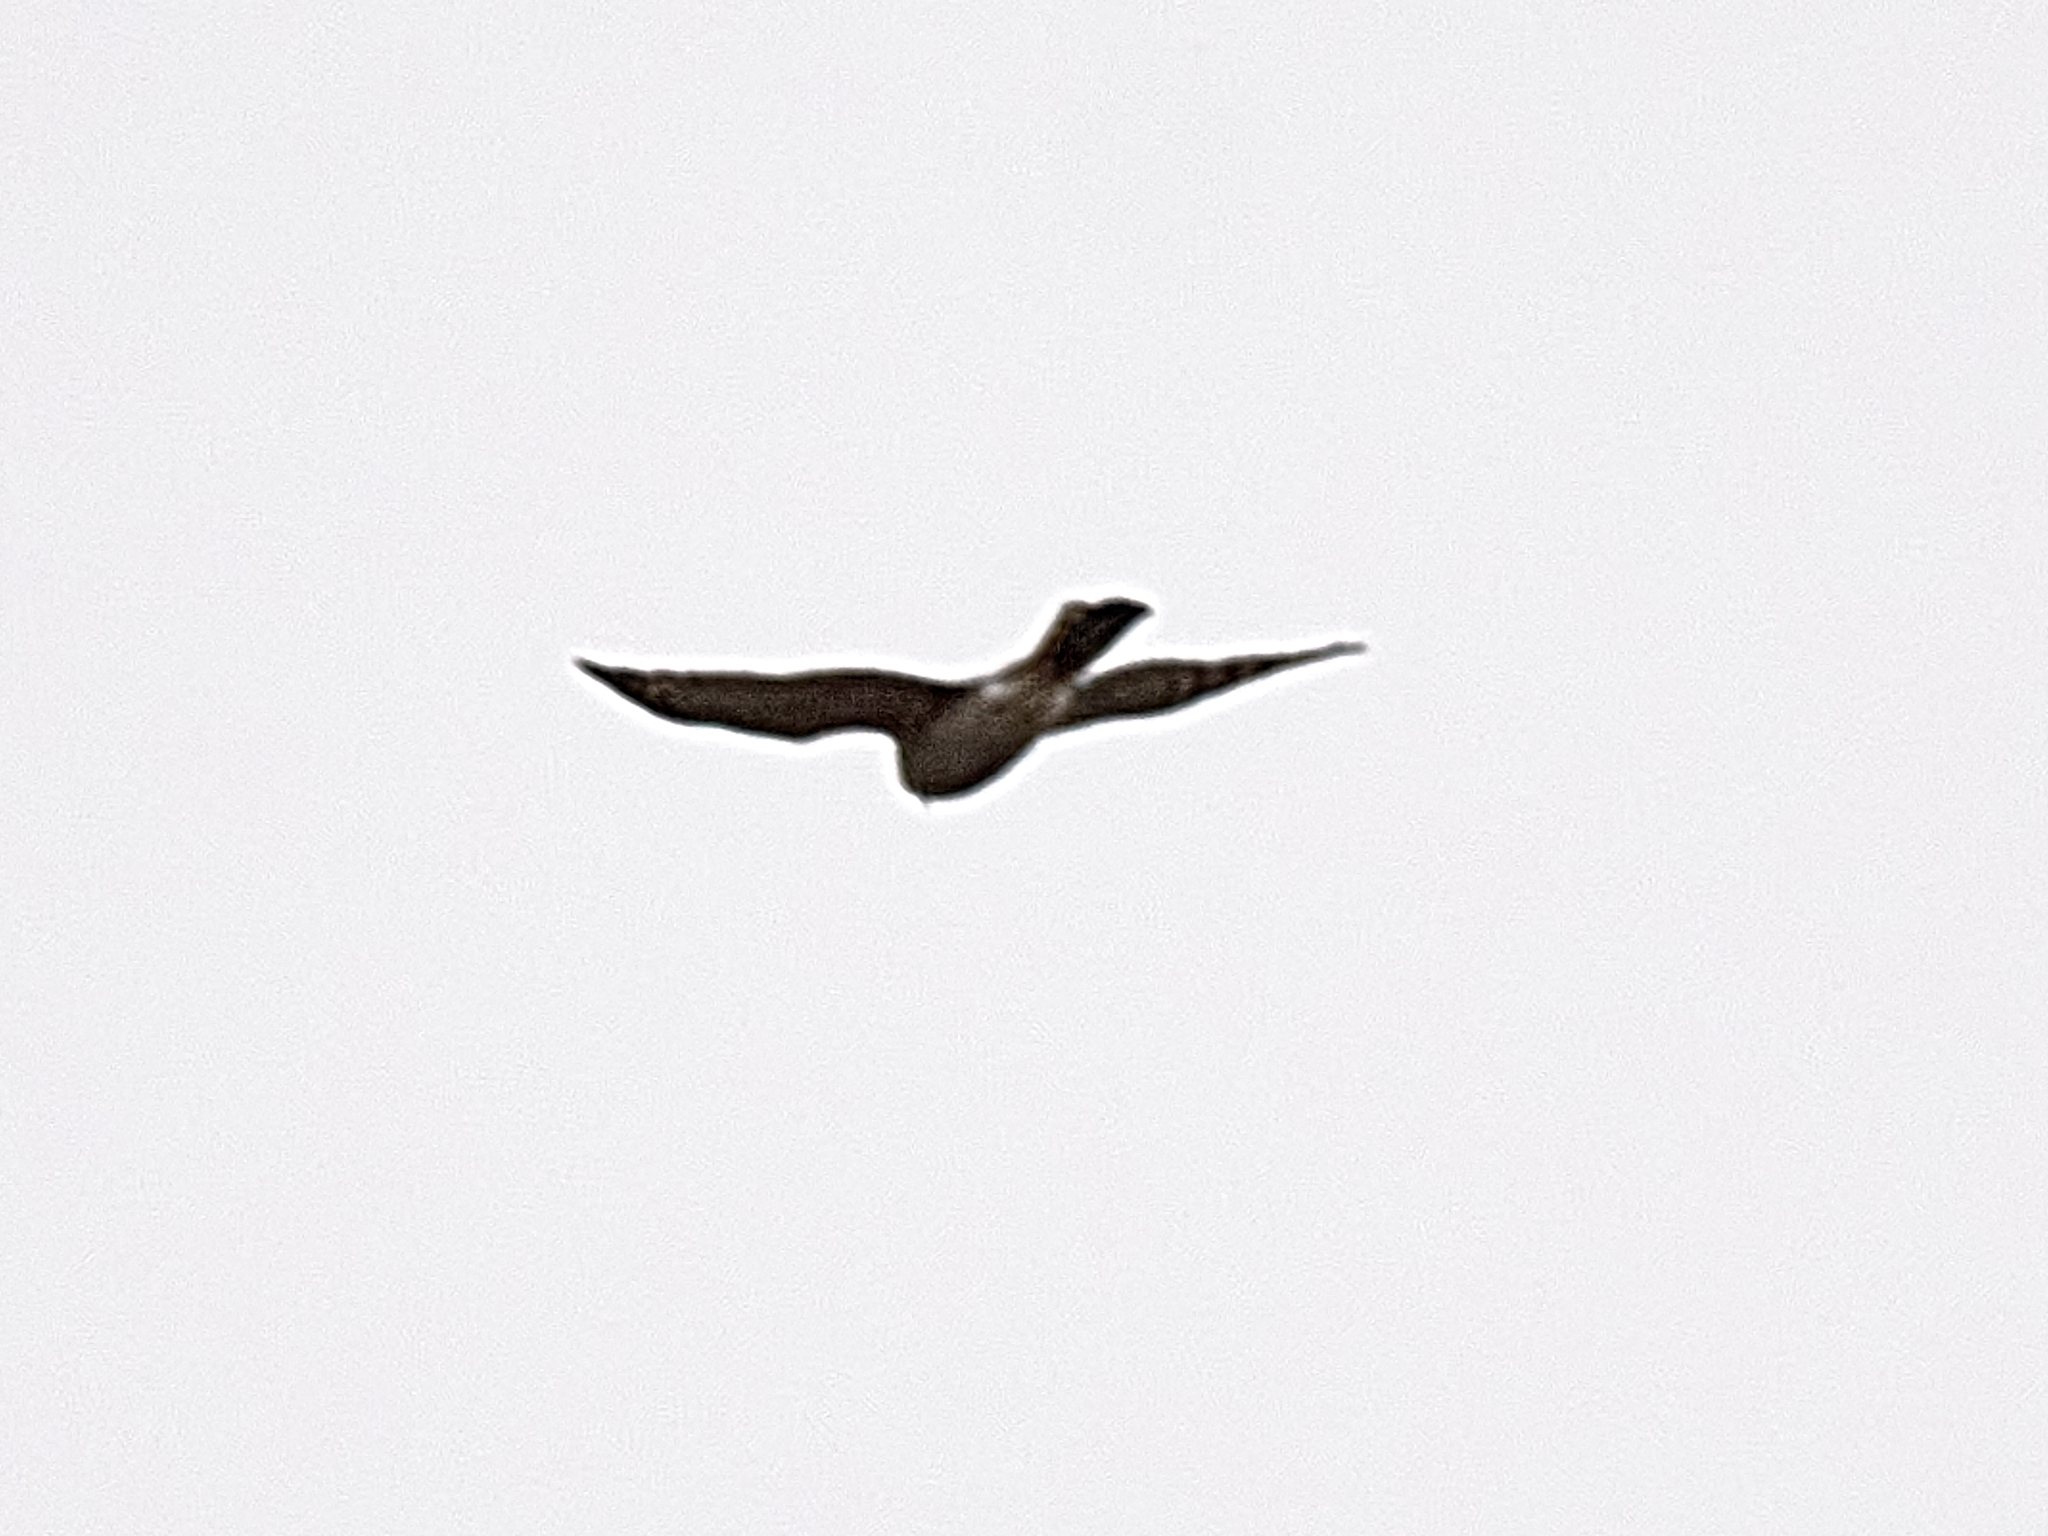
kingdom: Animalia
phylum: Chordata
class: Aves
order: Accipitriformes
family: Accipitridae
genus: Accipiter
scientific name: Accipiter nisus
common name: Eurasian sparrowhawk
